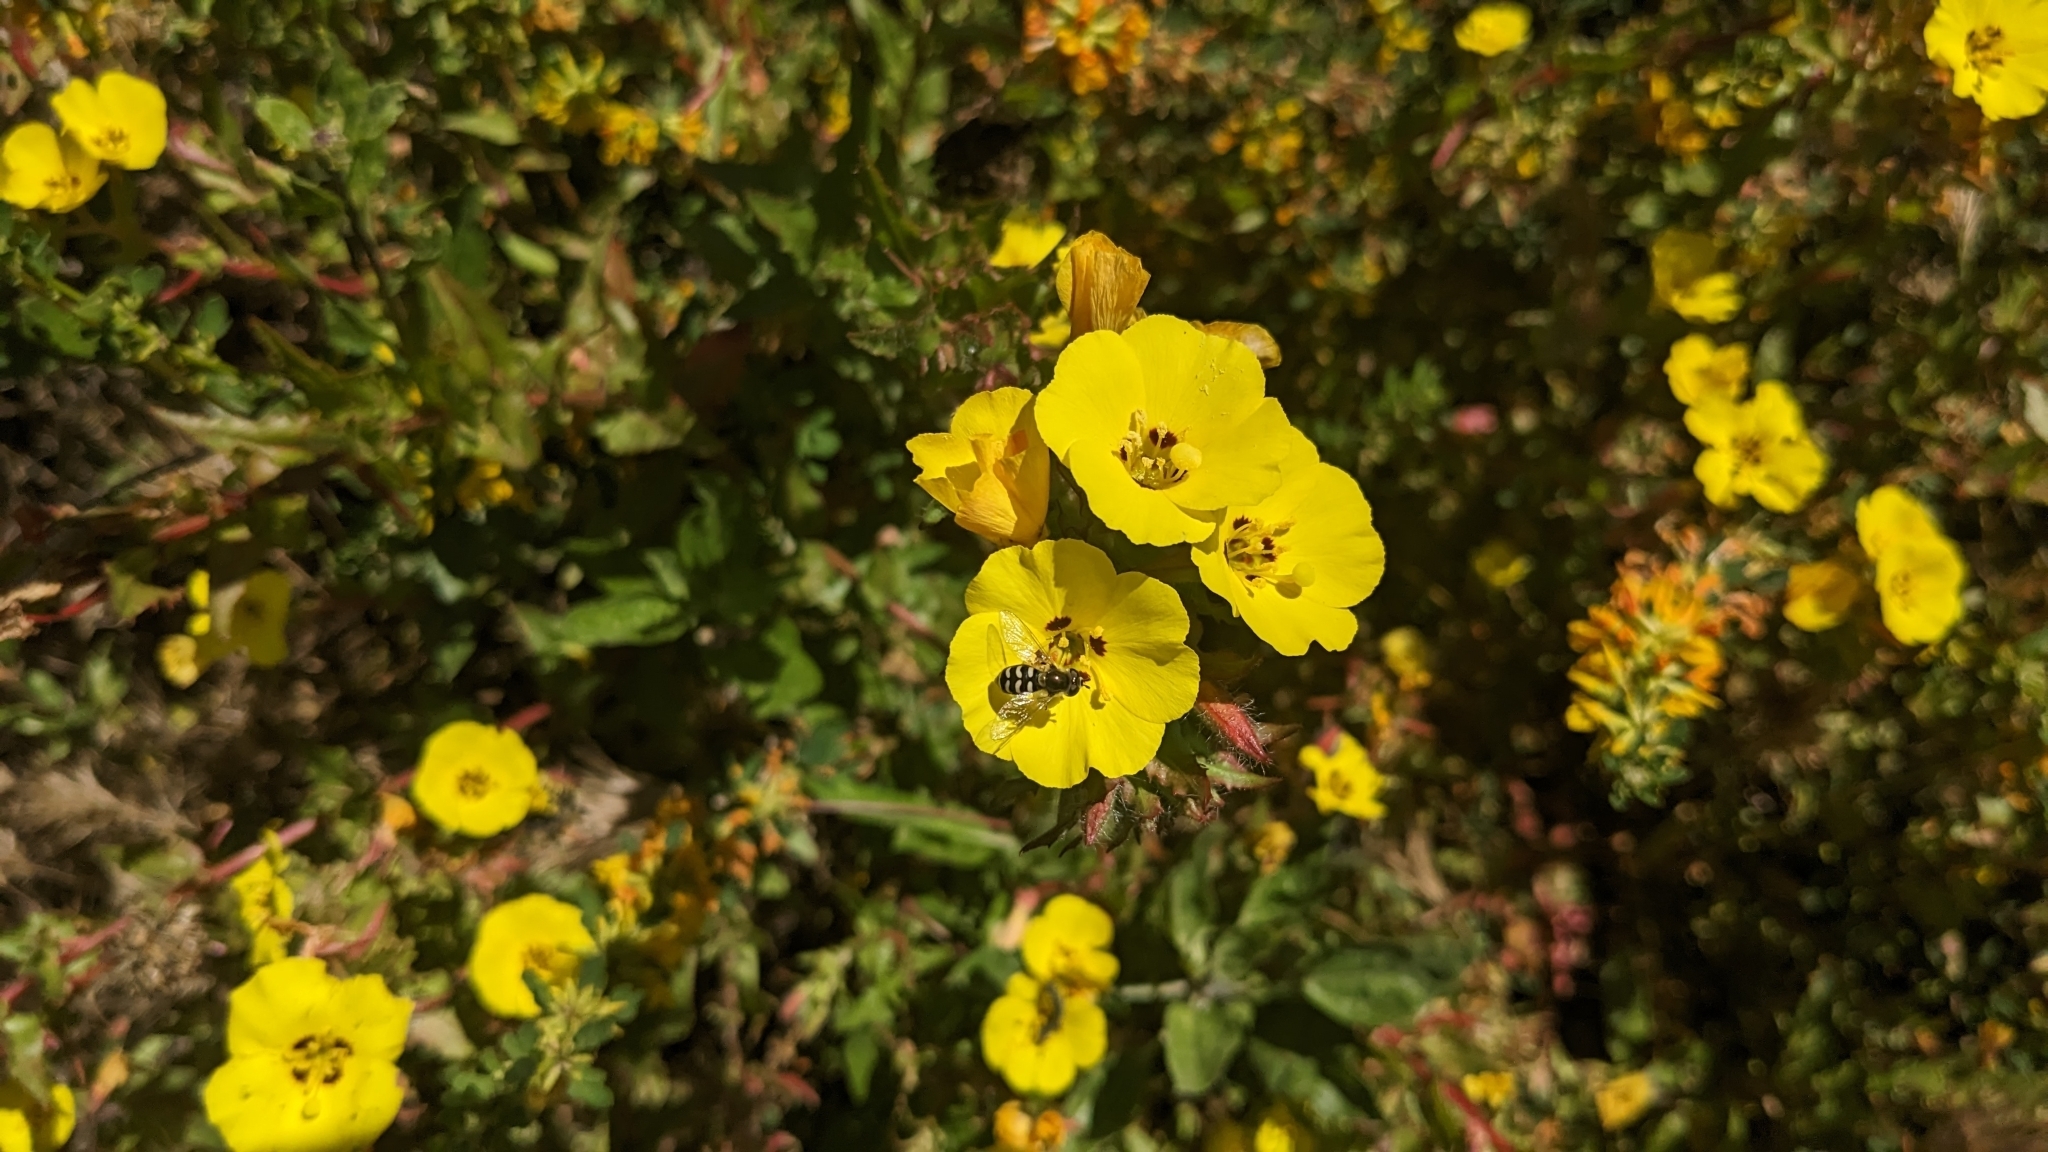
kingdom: Plantae
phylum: Tracheophyta
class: Magnoliopsida
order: Myrtales
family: Onagraceae
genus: Camissoniopsis
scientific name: Camissoniopsis bistorta
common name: Southern suncup
